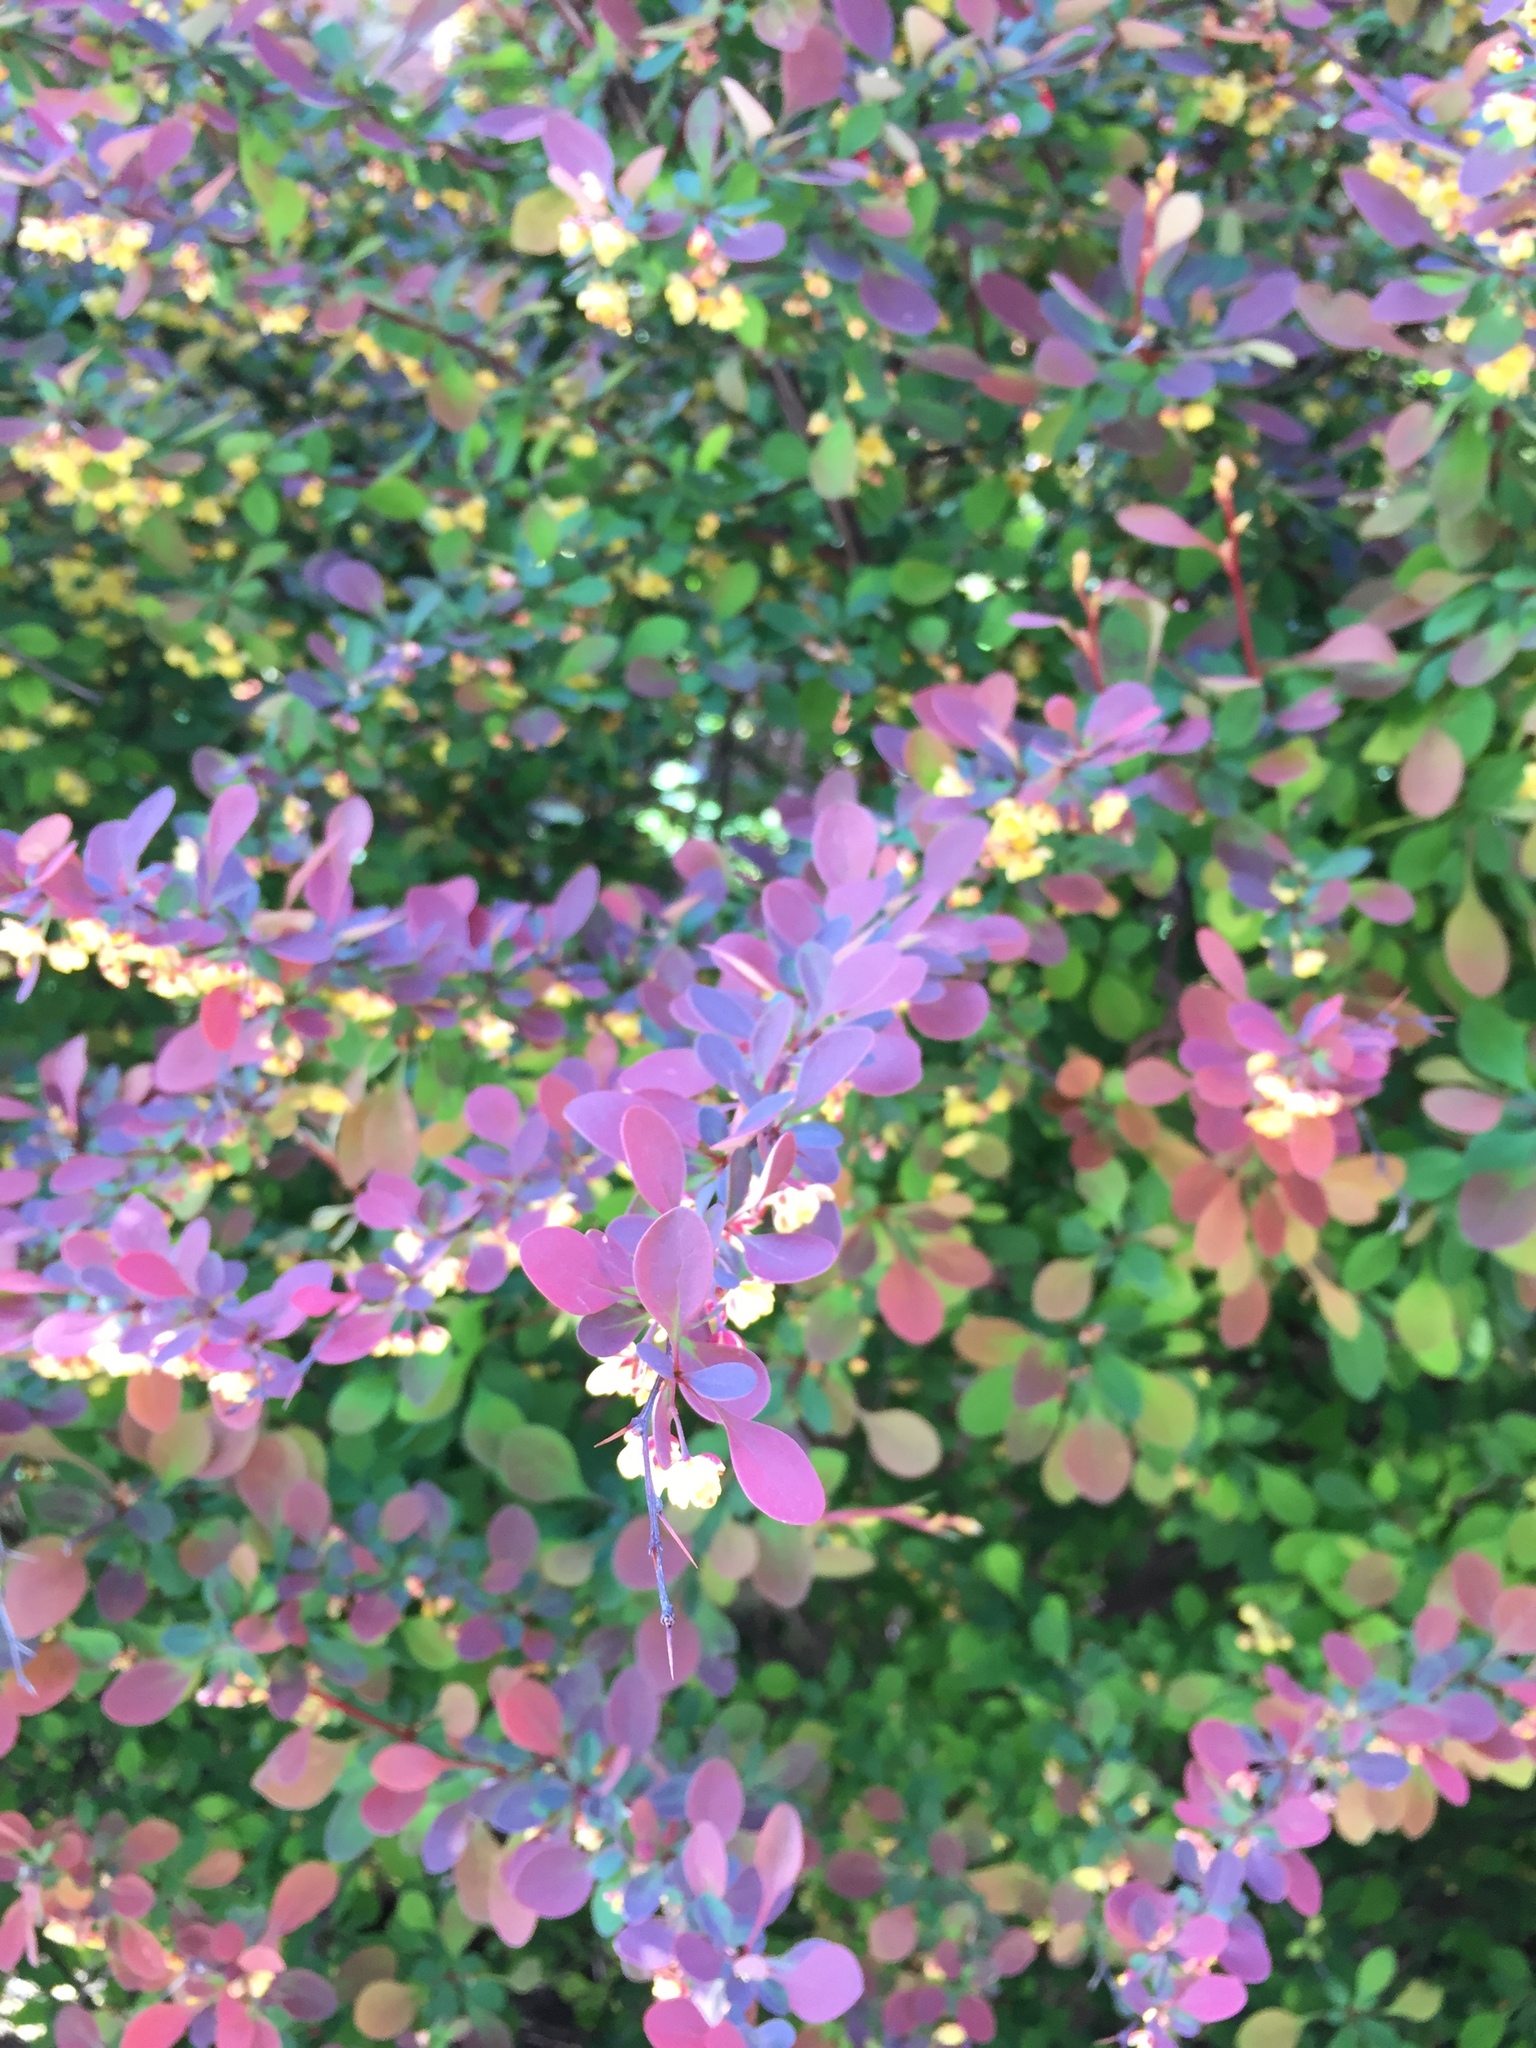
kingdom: Plantae
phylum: Tracheophyta
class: Magnoliopsida
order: Ranunculales
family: Berberidaceae
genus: Berberis
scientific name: Berberis thunbergii
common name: Japanese barberry
